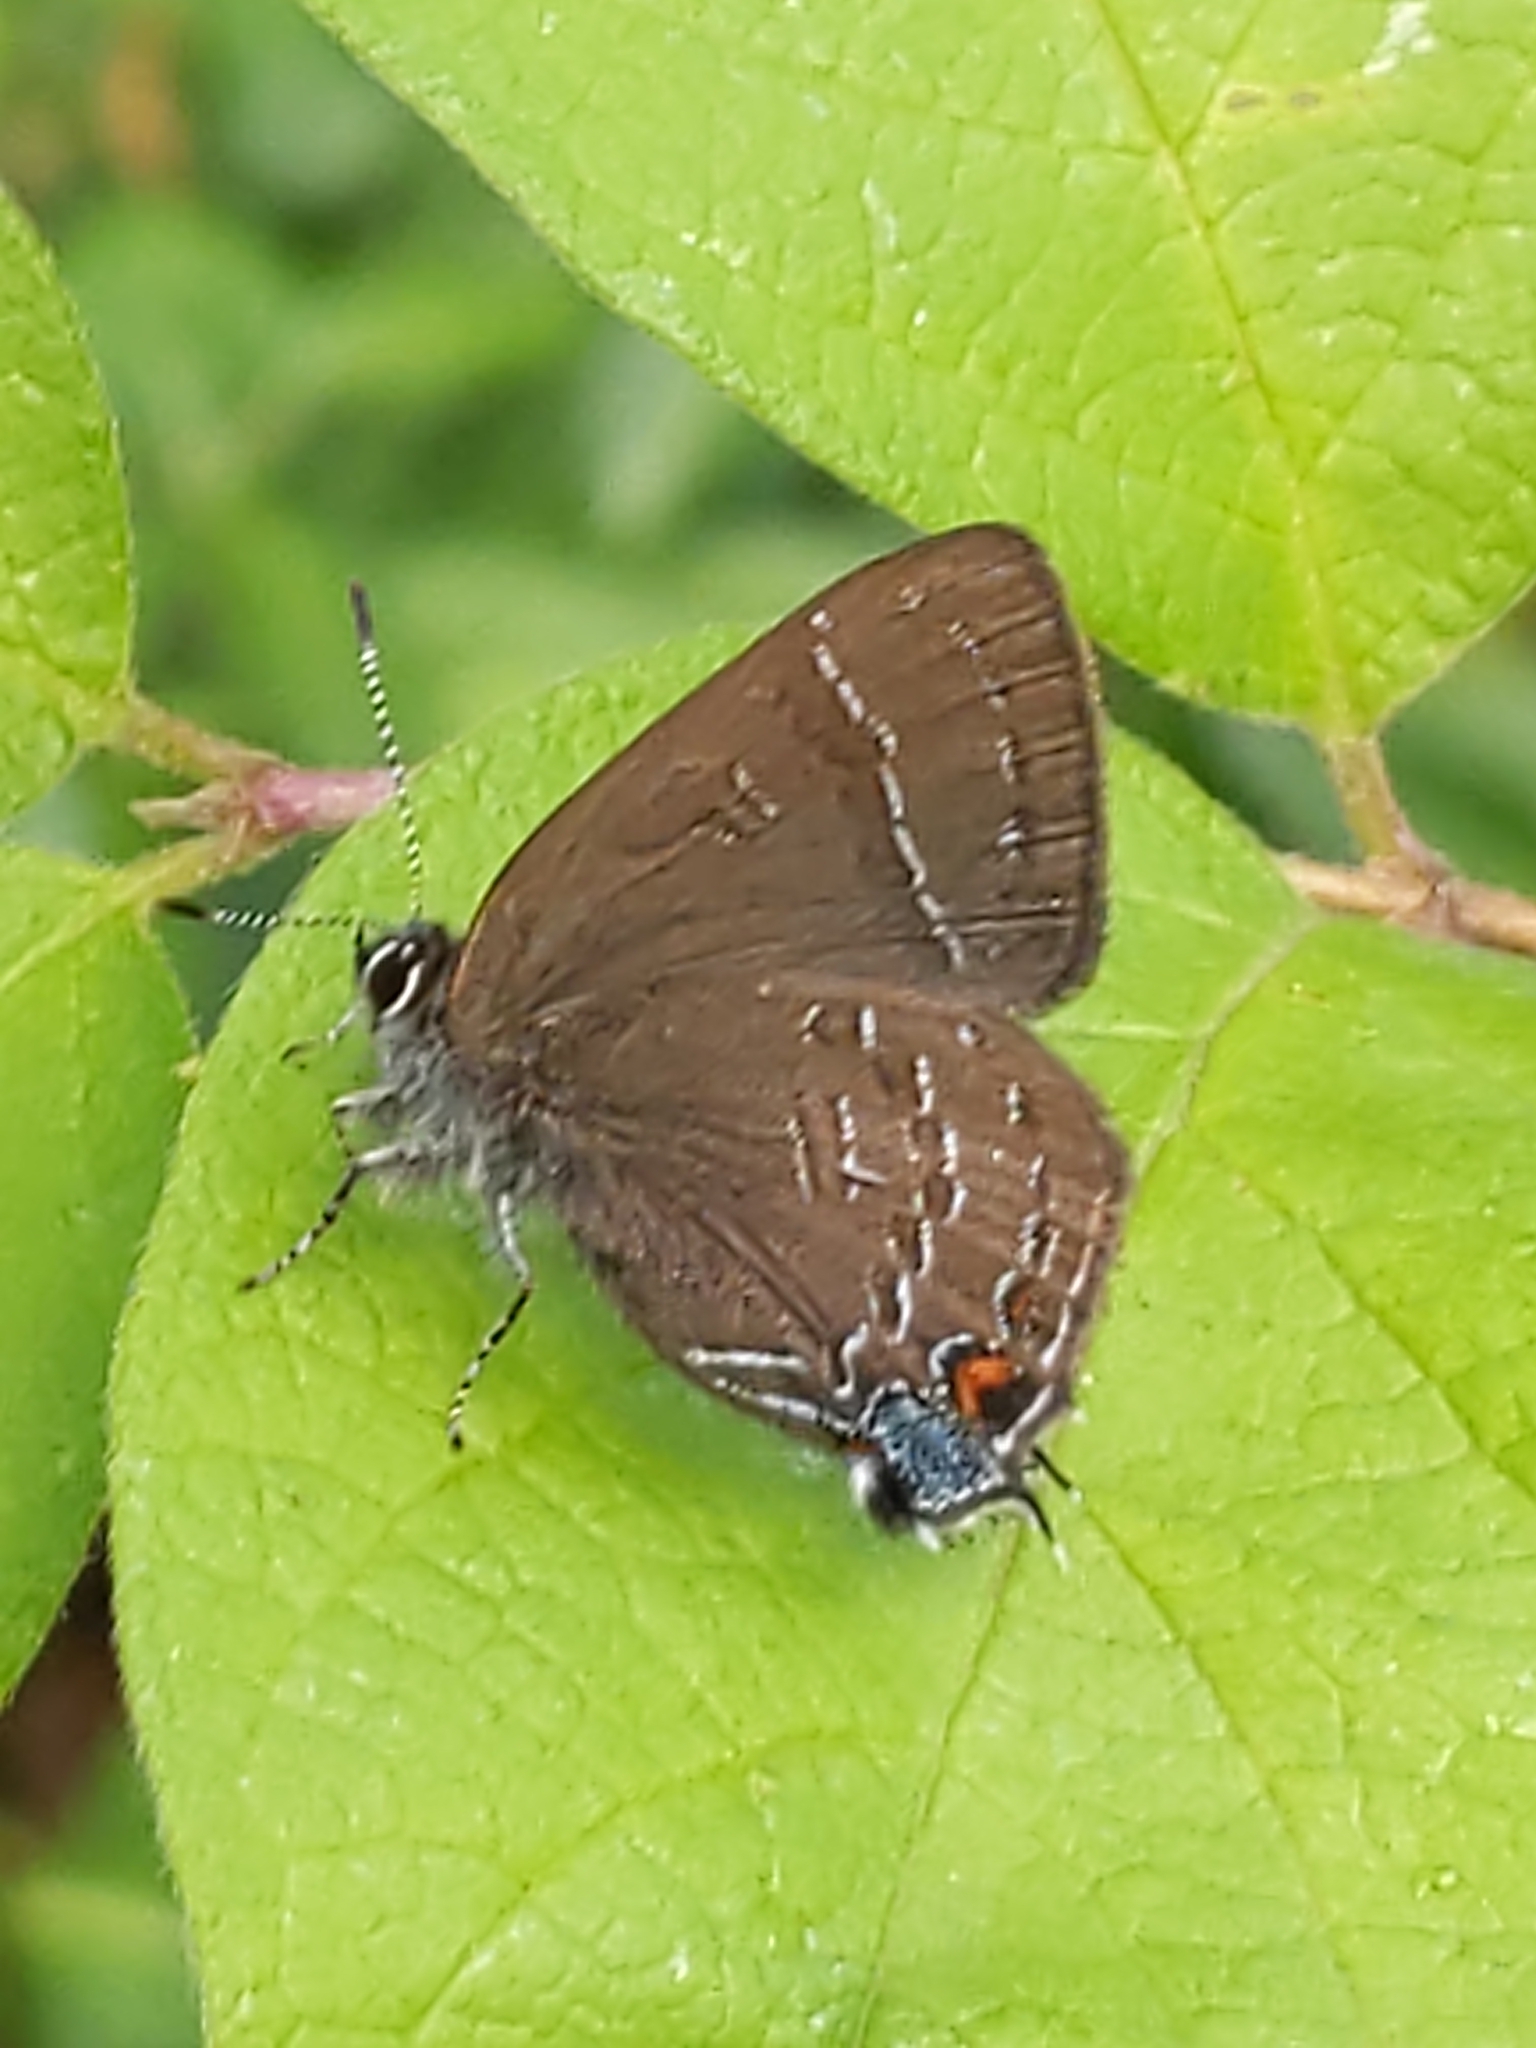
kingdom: Animalia
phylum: Arthropoda
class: Insecta
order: Lepidoptera
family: Lycaenidae
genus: Satyrium
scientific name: Satyrium calanus
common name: Banded hairstreak
